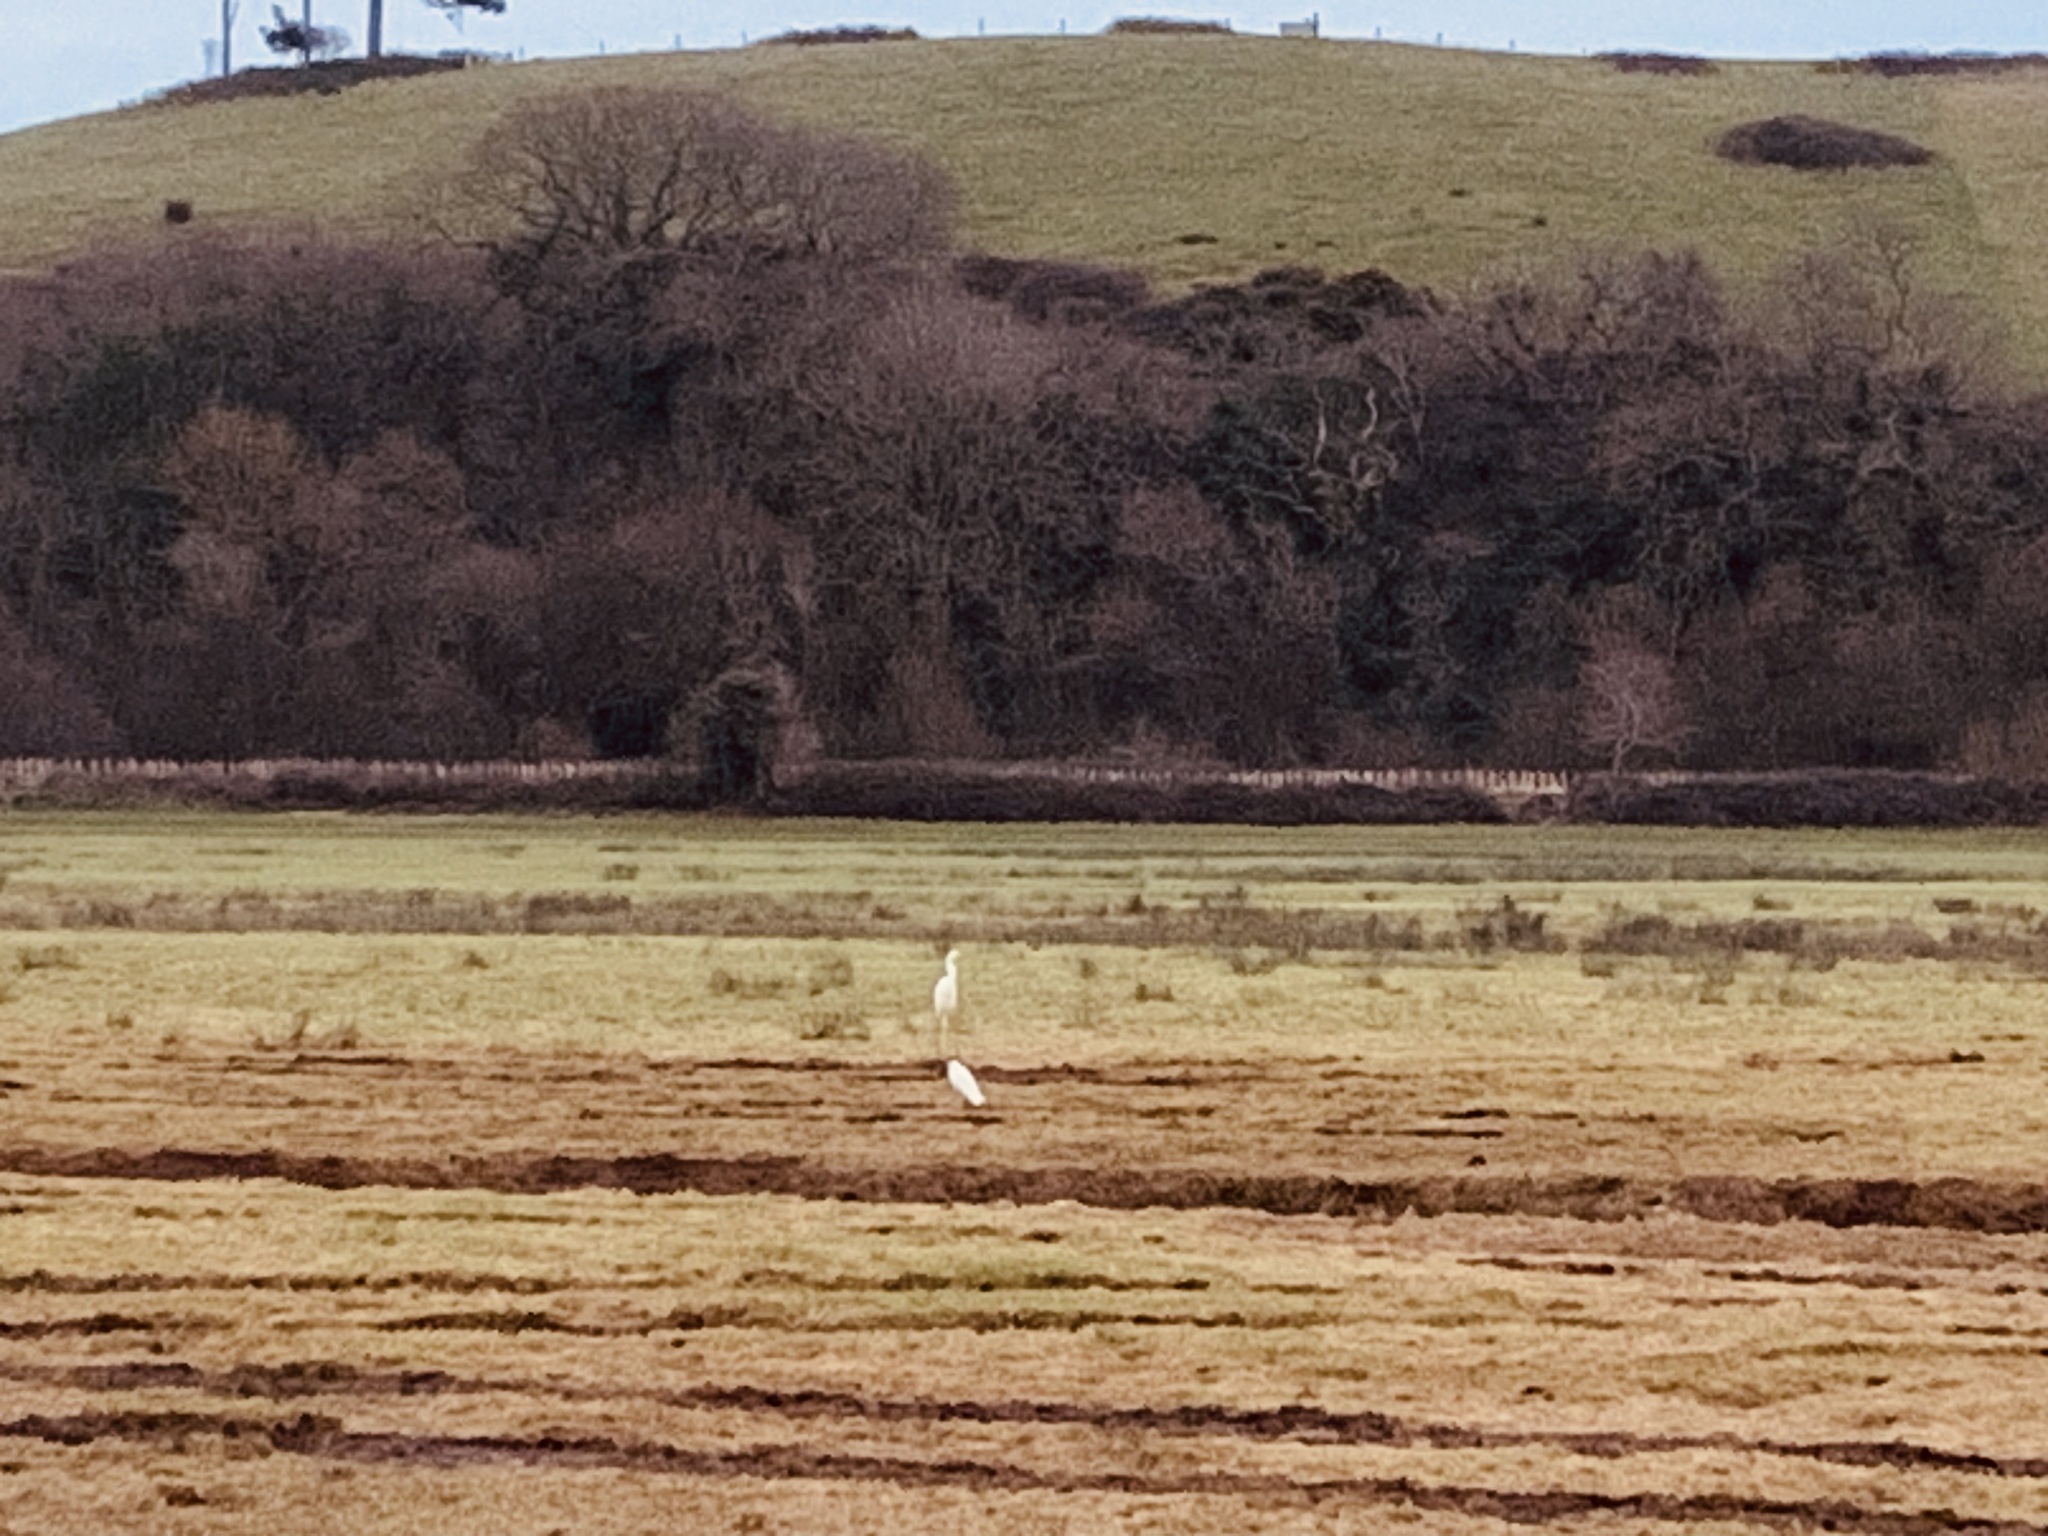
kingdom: Animalia
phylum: Chordata
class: Aves
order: Pelecaniformes
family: Ardeidae
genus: Ardea
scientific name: Ardea alba
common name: Great egret
